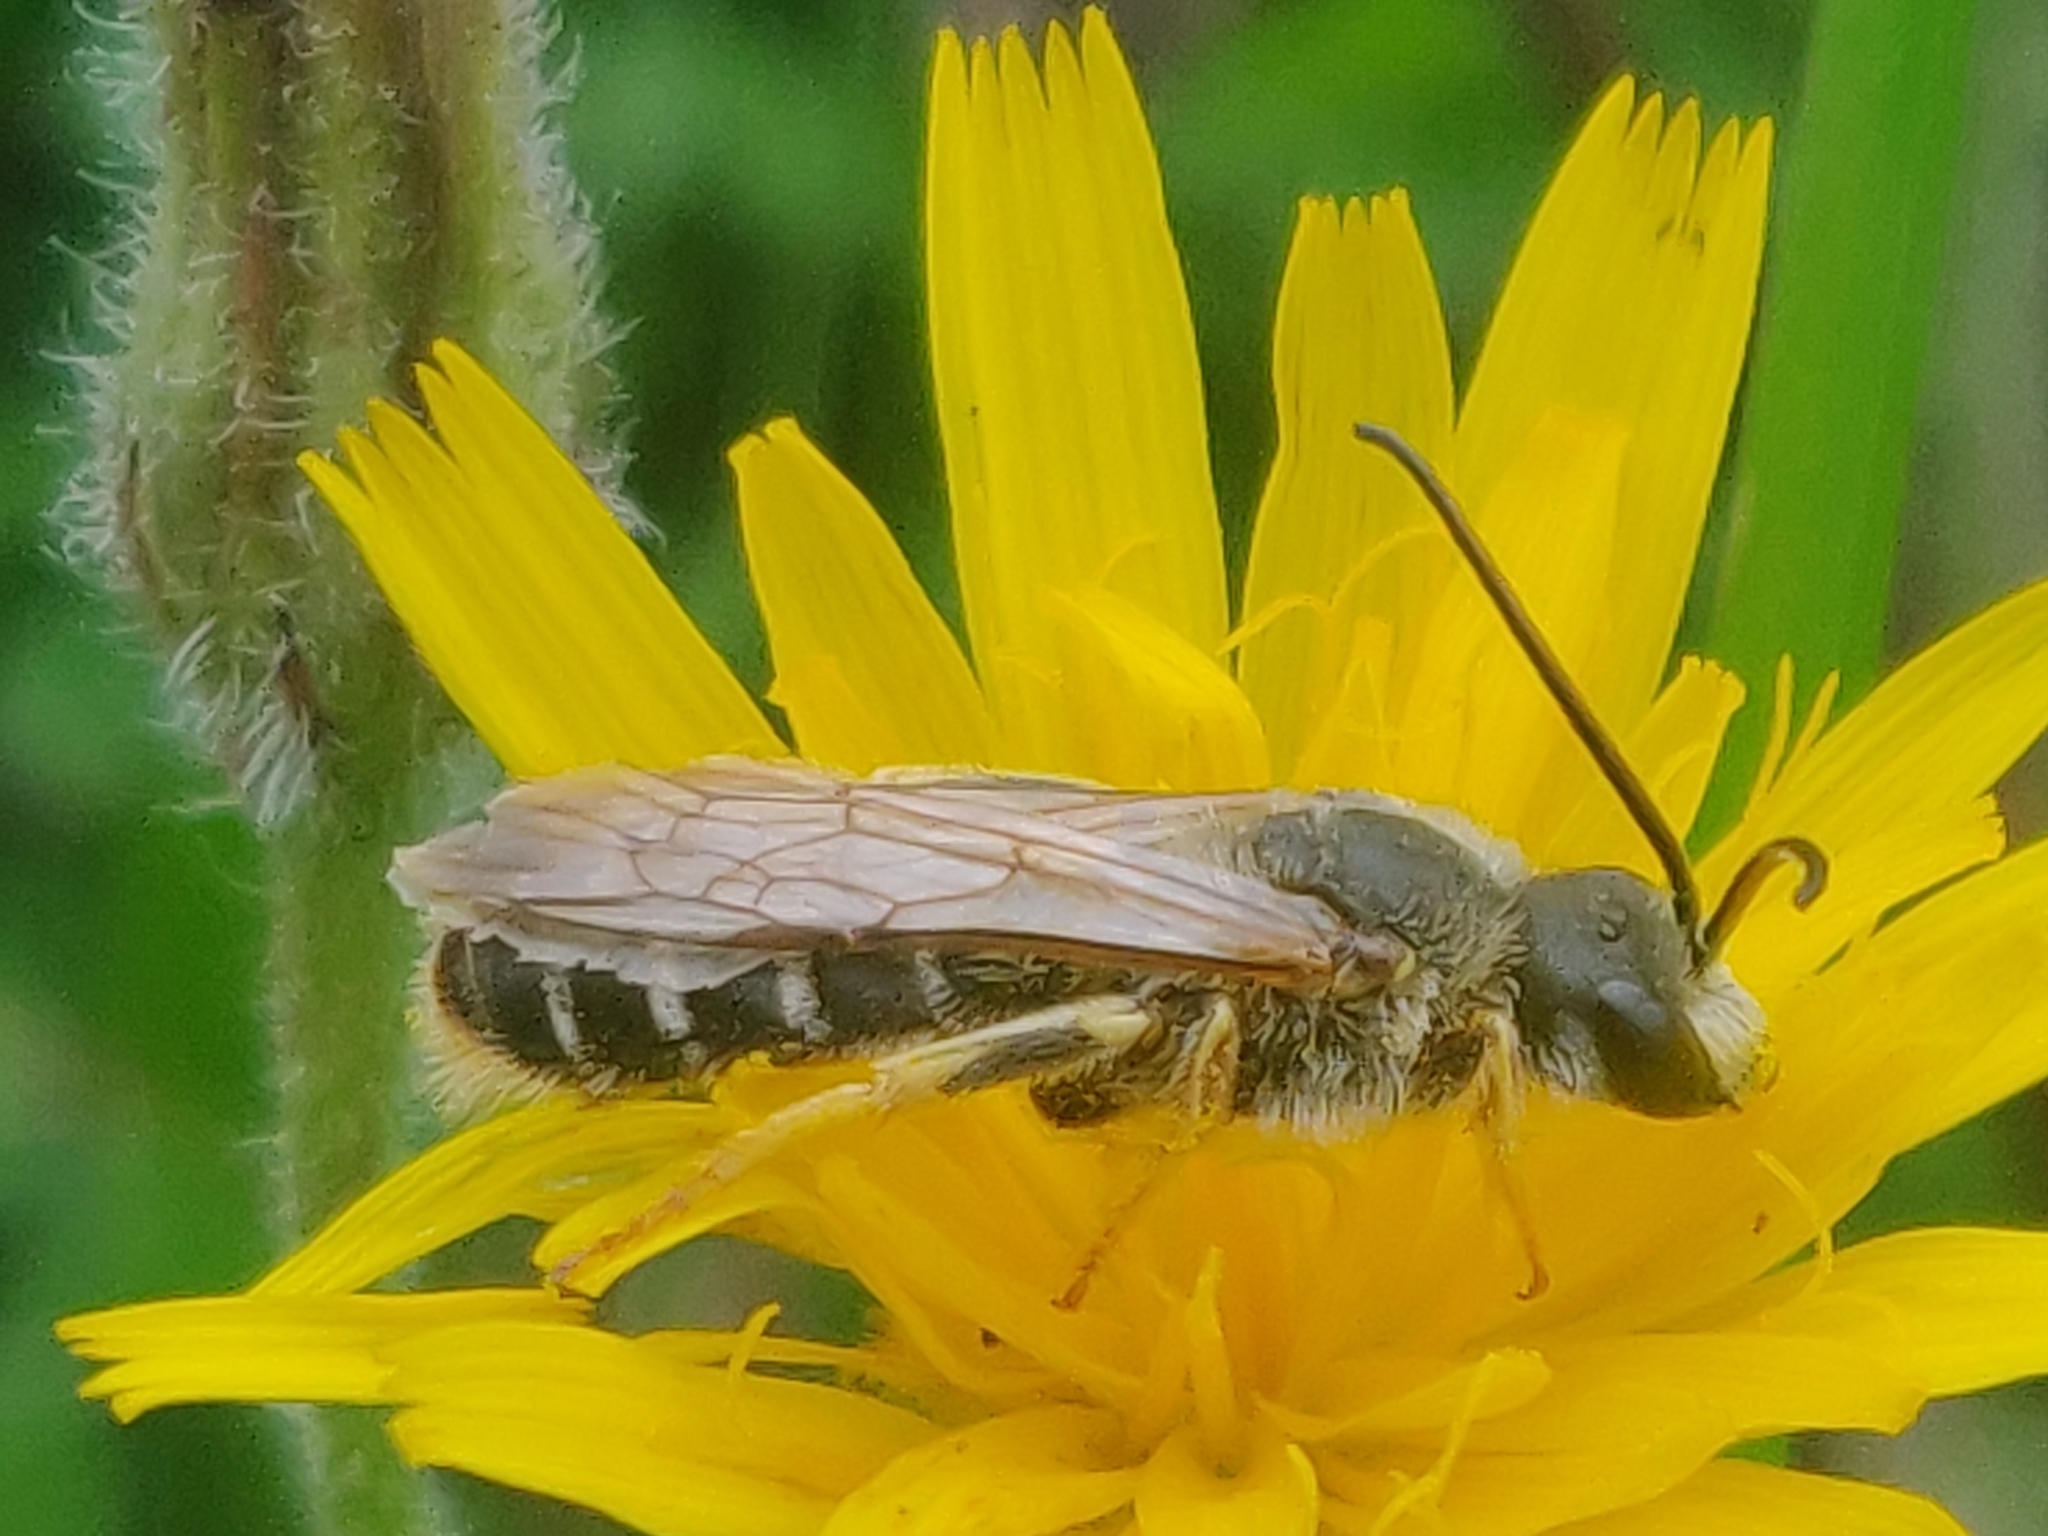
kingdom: Animalia
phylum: Arthropoda
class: Insecta
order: Hymenoptera
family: Halictidae
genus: Halictus
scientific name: Halictus quadricinctus
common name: Giant furrow bee
